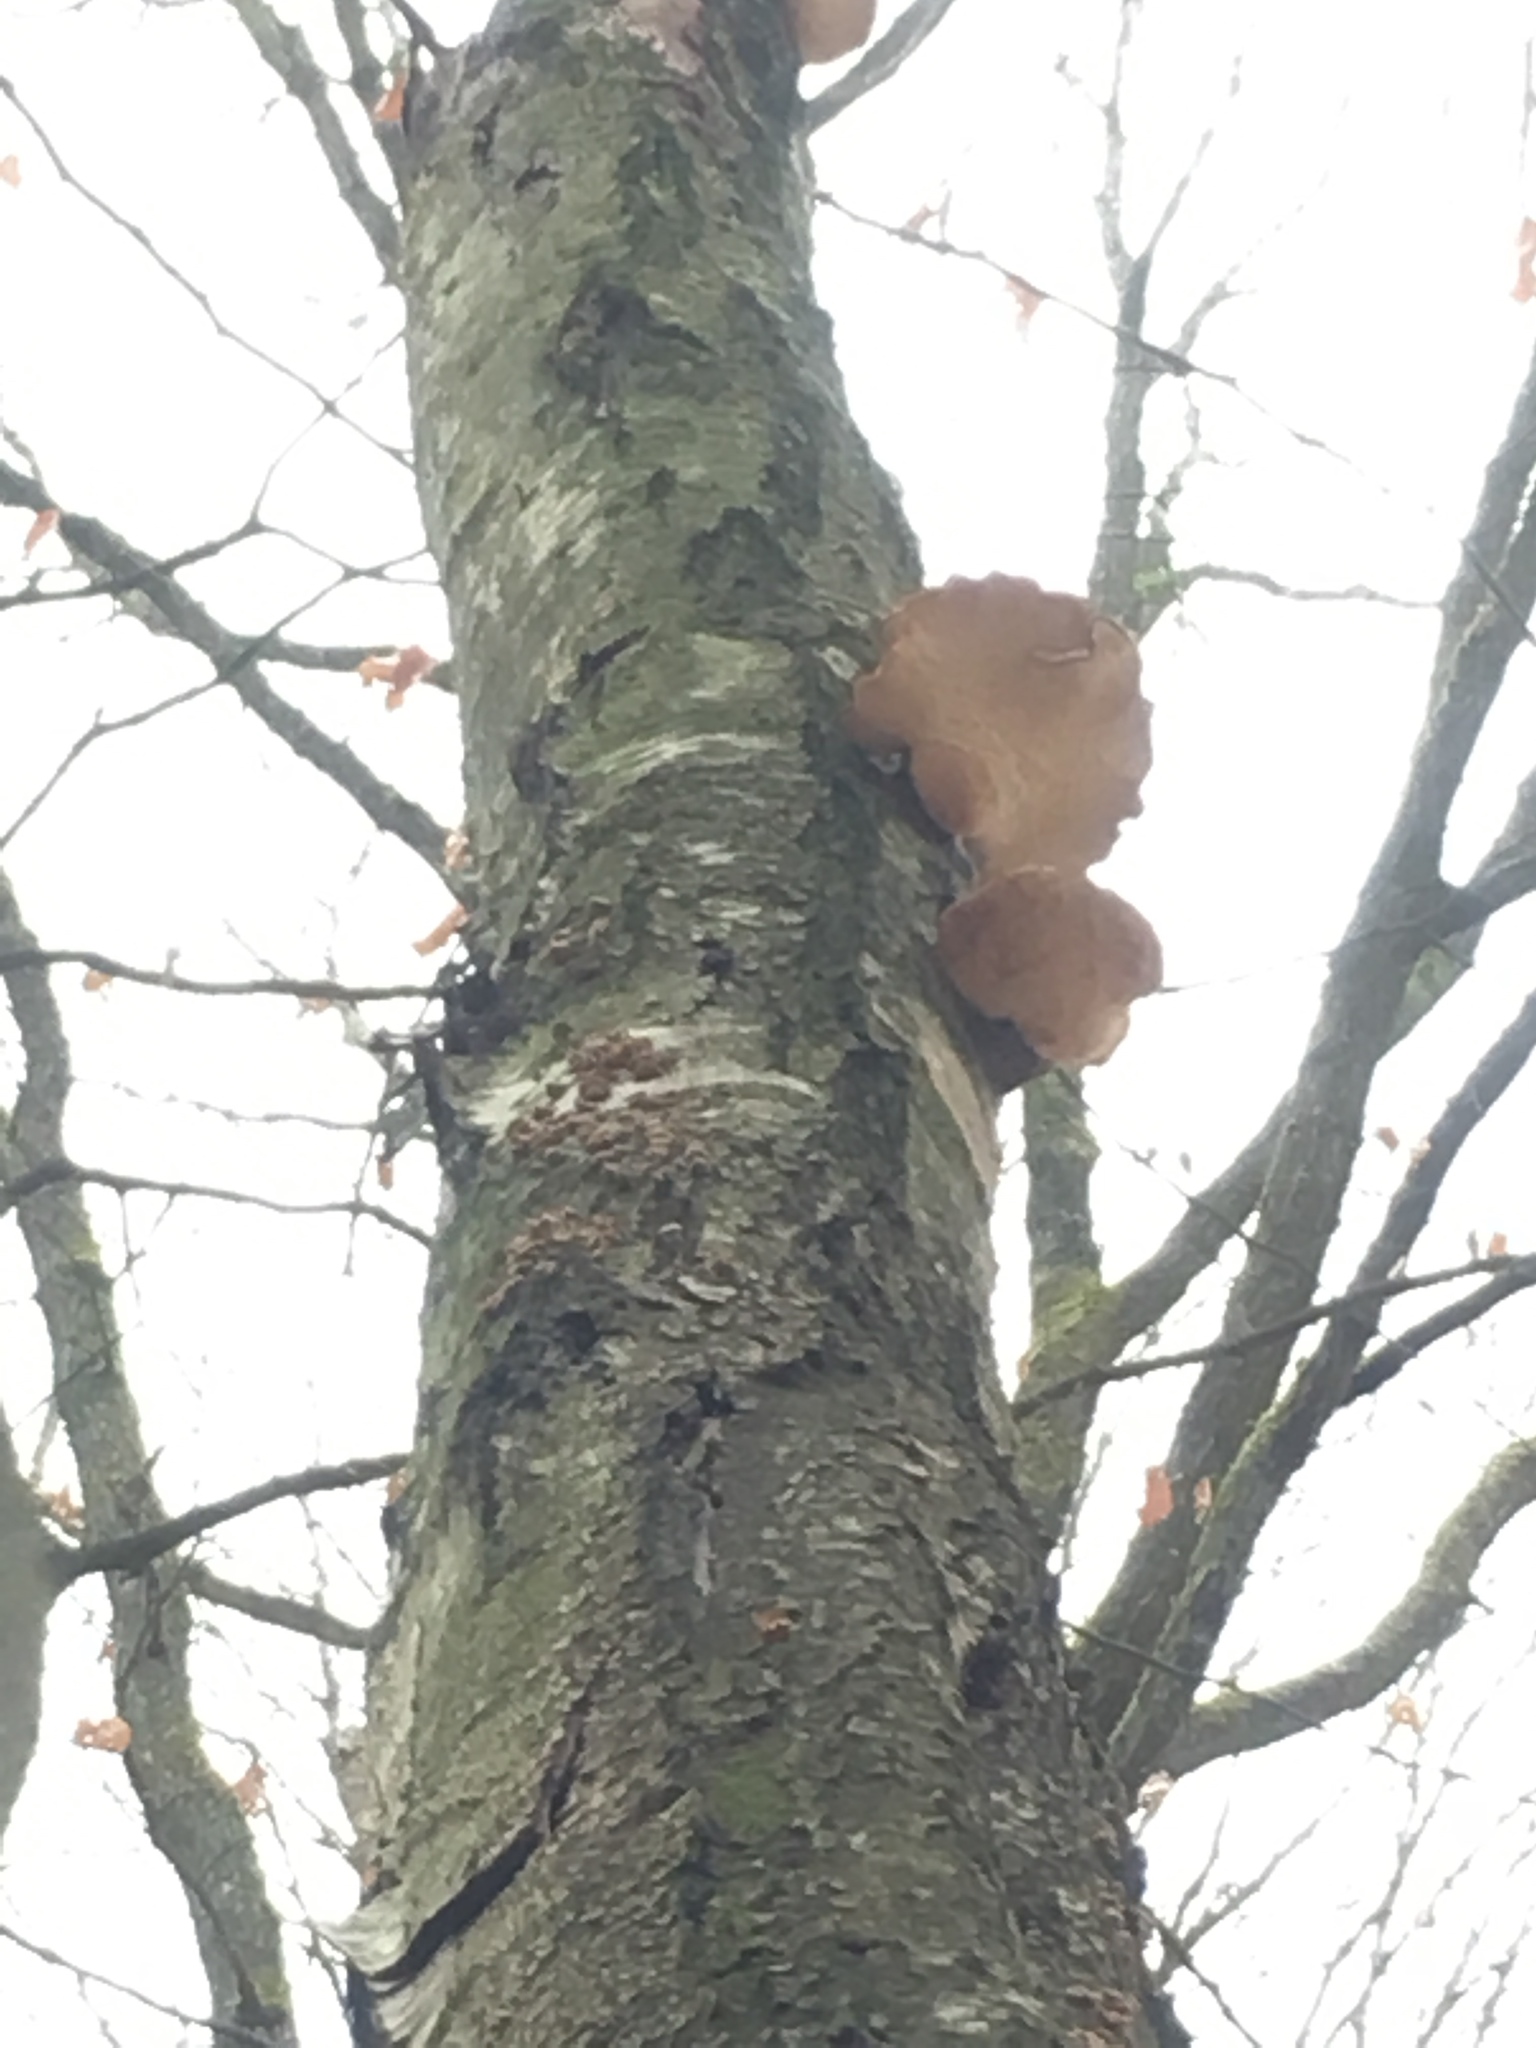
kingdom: Fungi
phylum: Basidiomycota
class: Agaricomycetes
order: Polyporales
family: Fomitopsidaceae
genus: Fomitopsis
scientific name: Fomitopsis betulina
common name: Birch polypore
